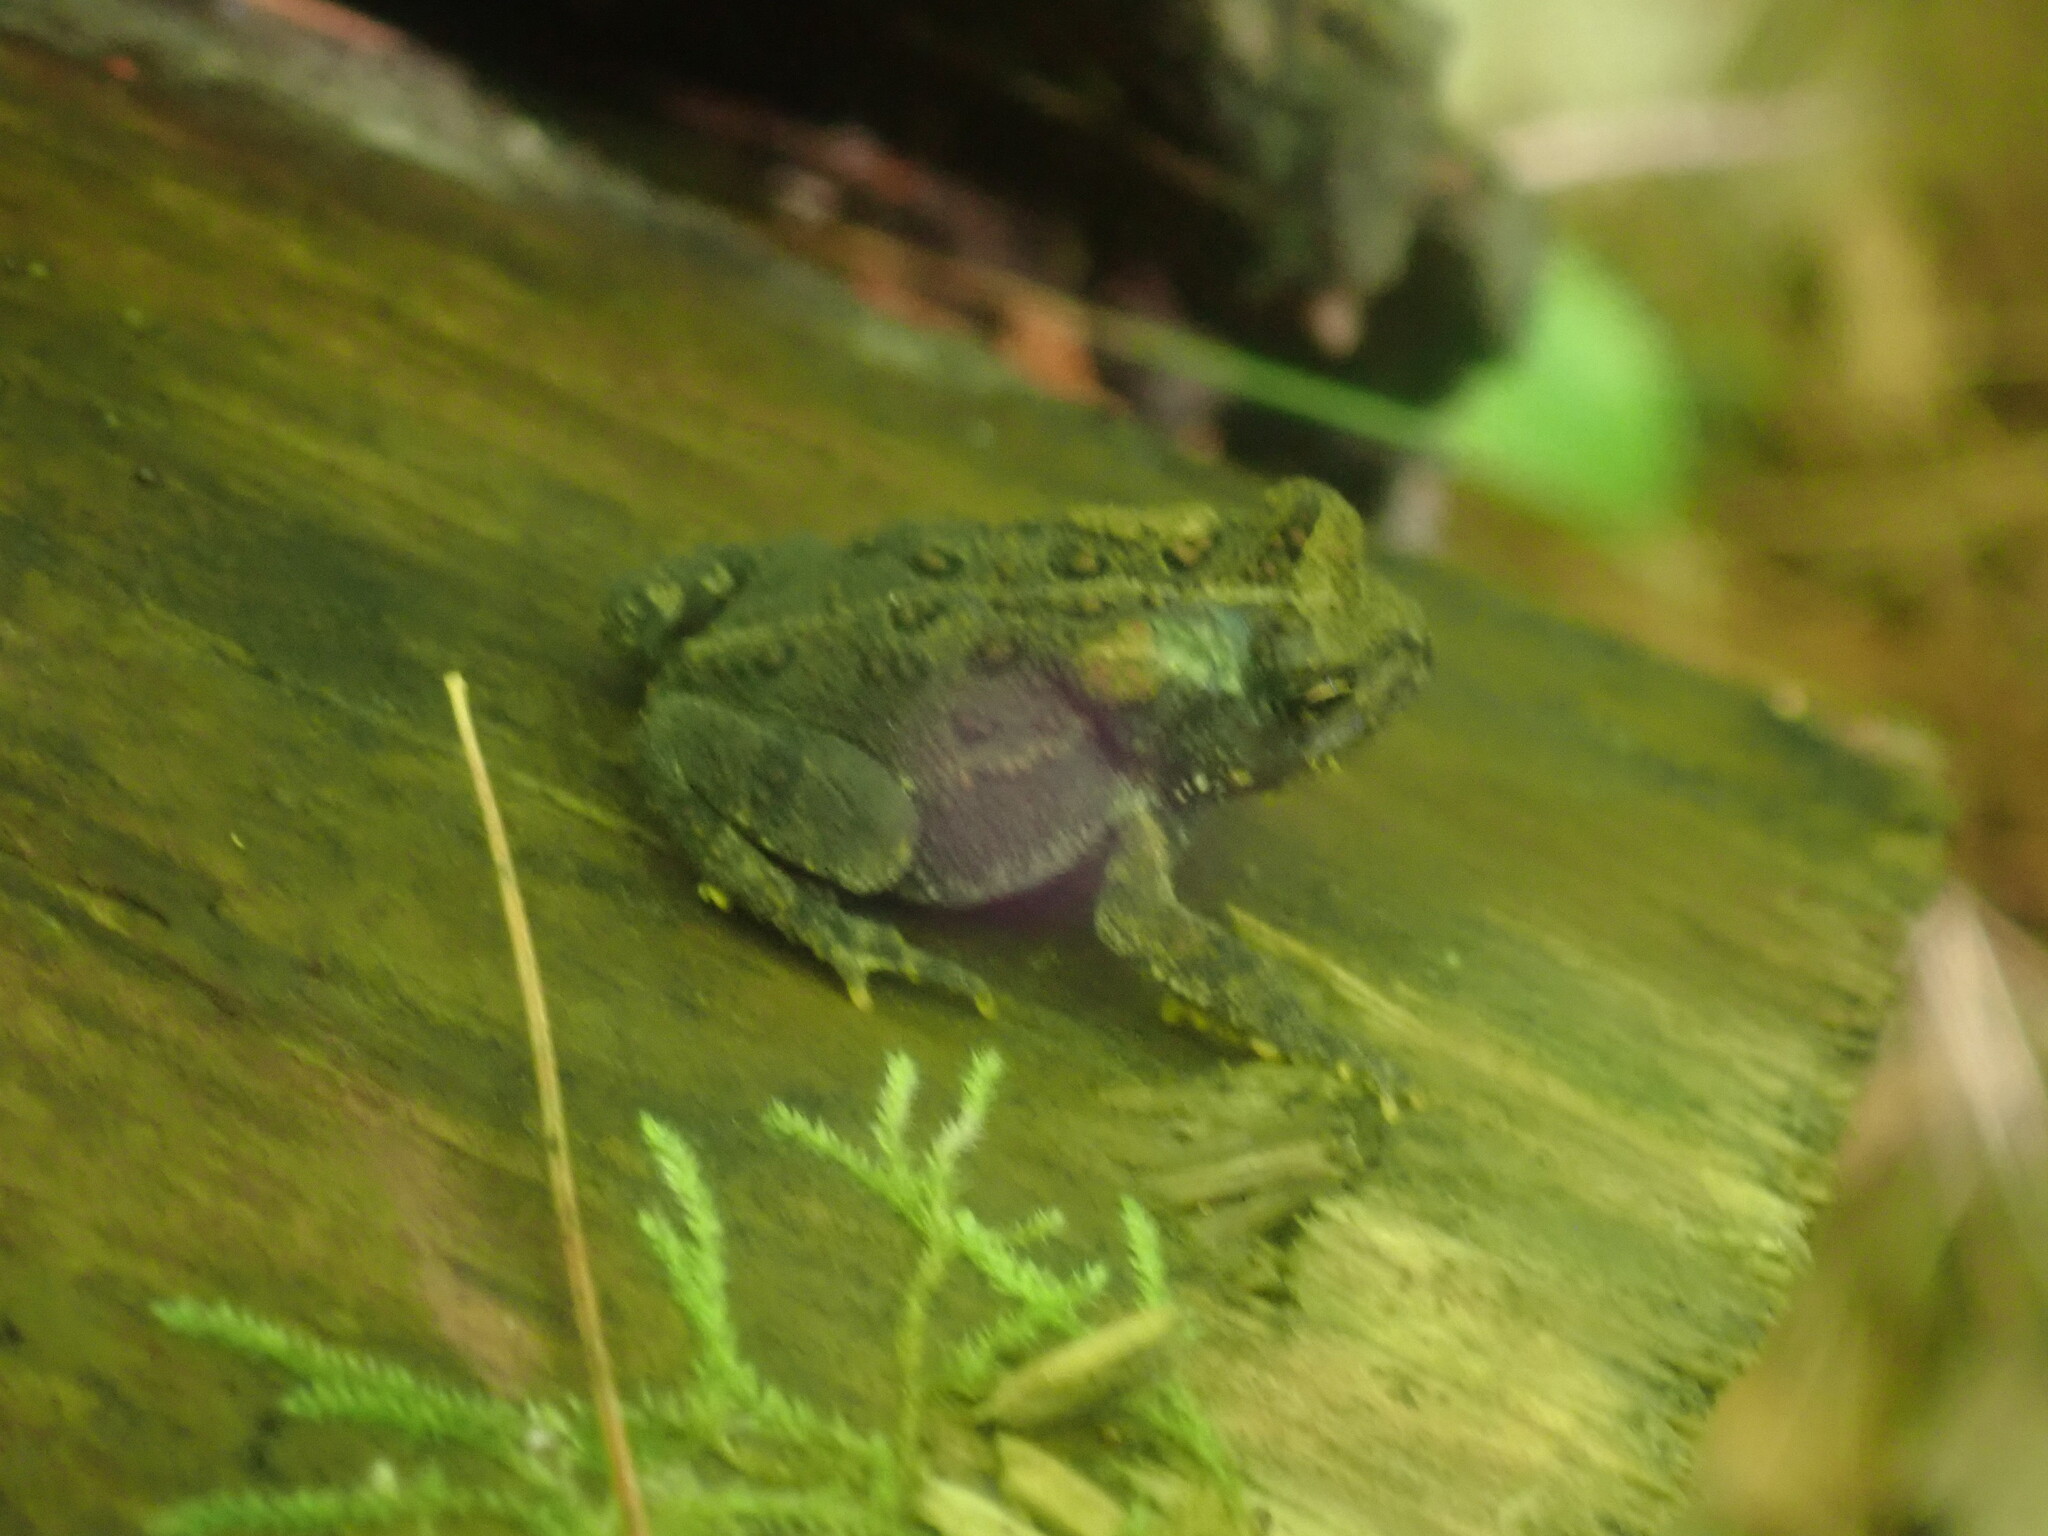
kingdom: Animalia
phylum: Chordata
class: Amphibia
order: Anura
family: Bufonidae
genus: Anaxyrus
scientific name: Anaxyrus americanus
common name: American toad
